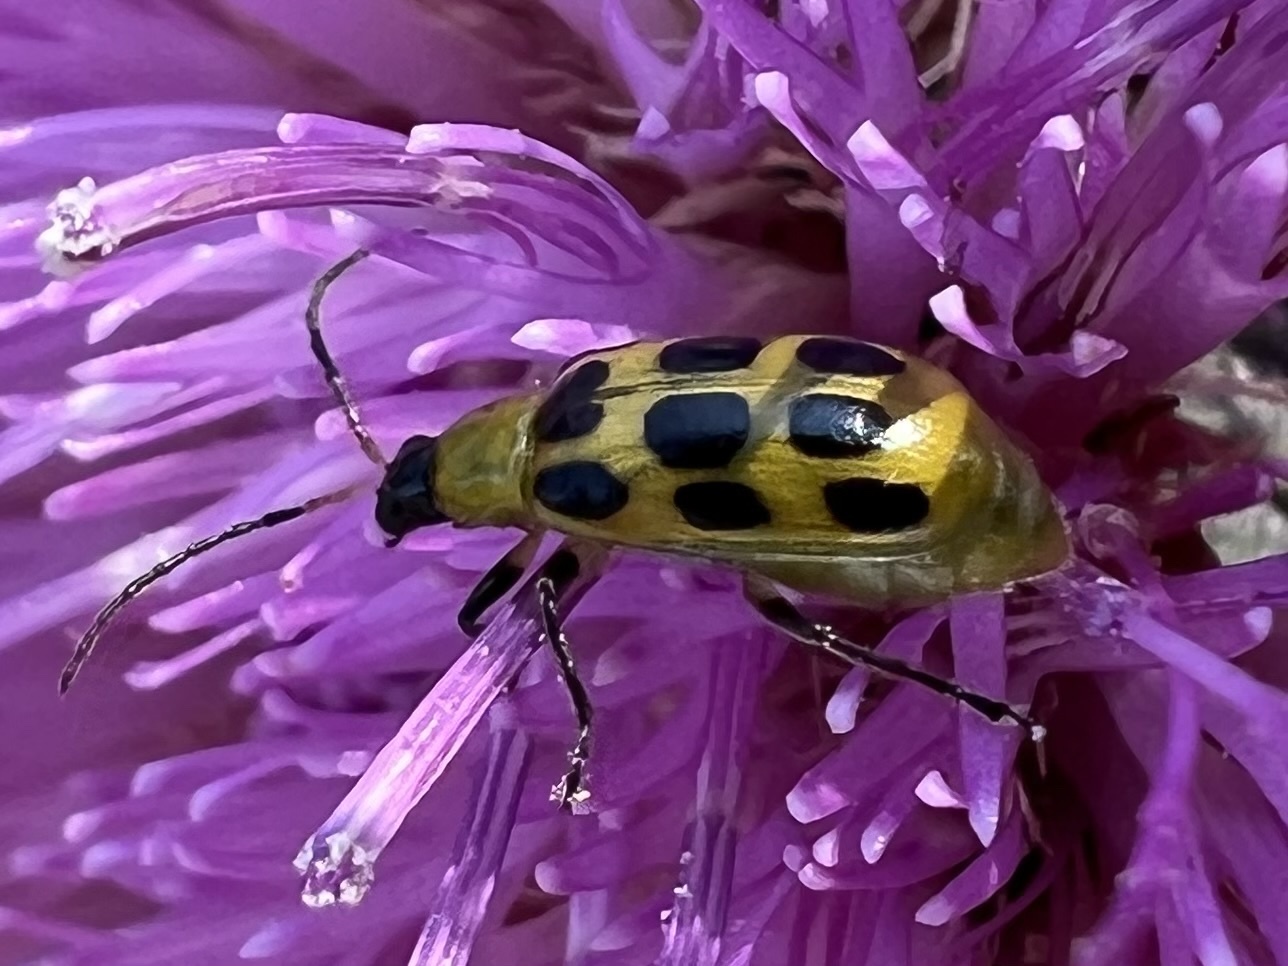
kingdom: Animalia
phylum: Arthropoda
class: Insecta
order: Coleoptera
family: Chrysomelidae
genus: Diabrotica
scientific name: Diabrotica undecimpunctata
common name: Spotted cucumber beetle
